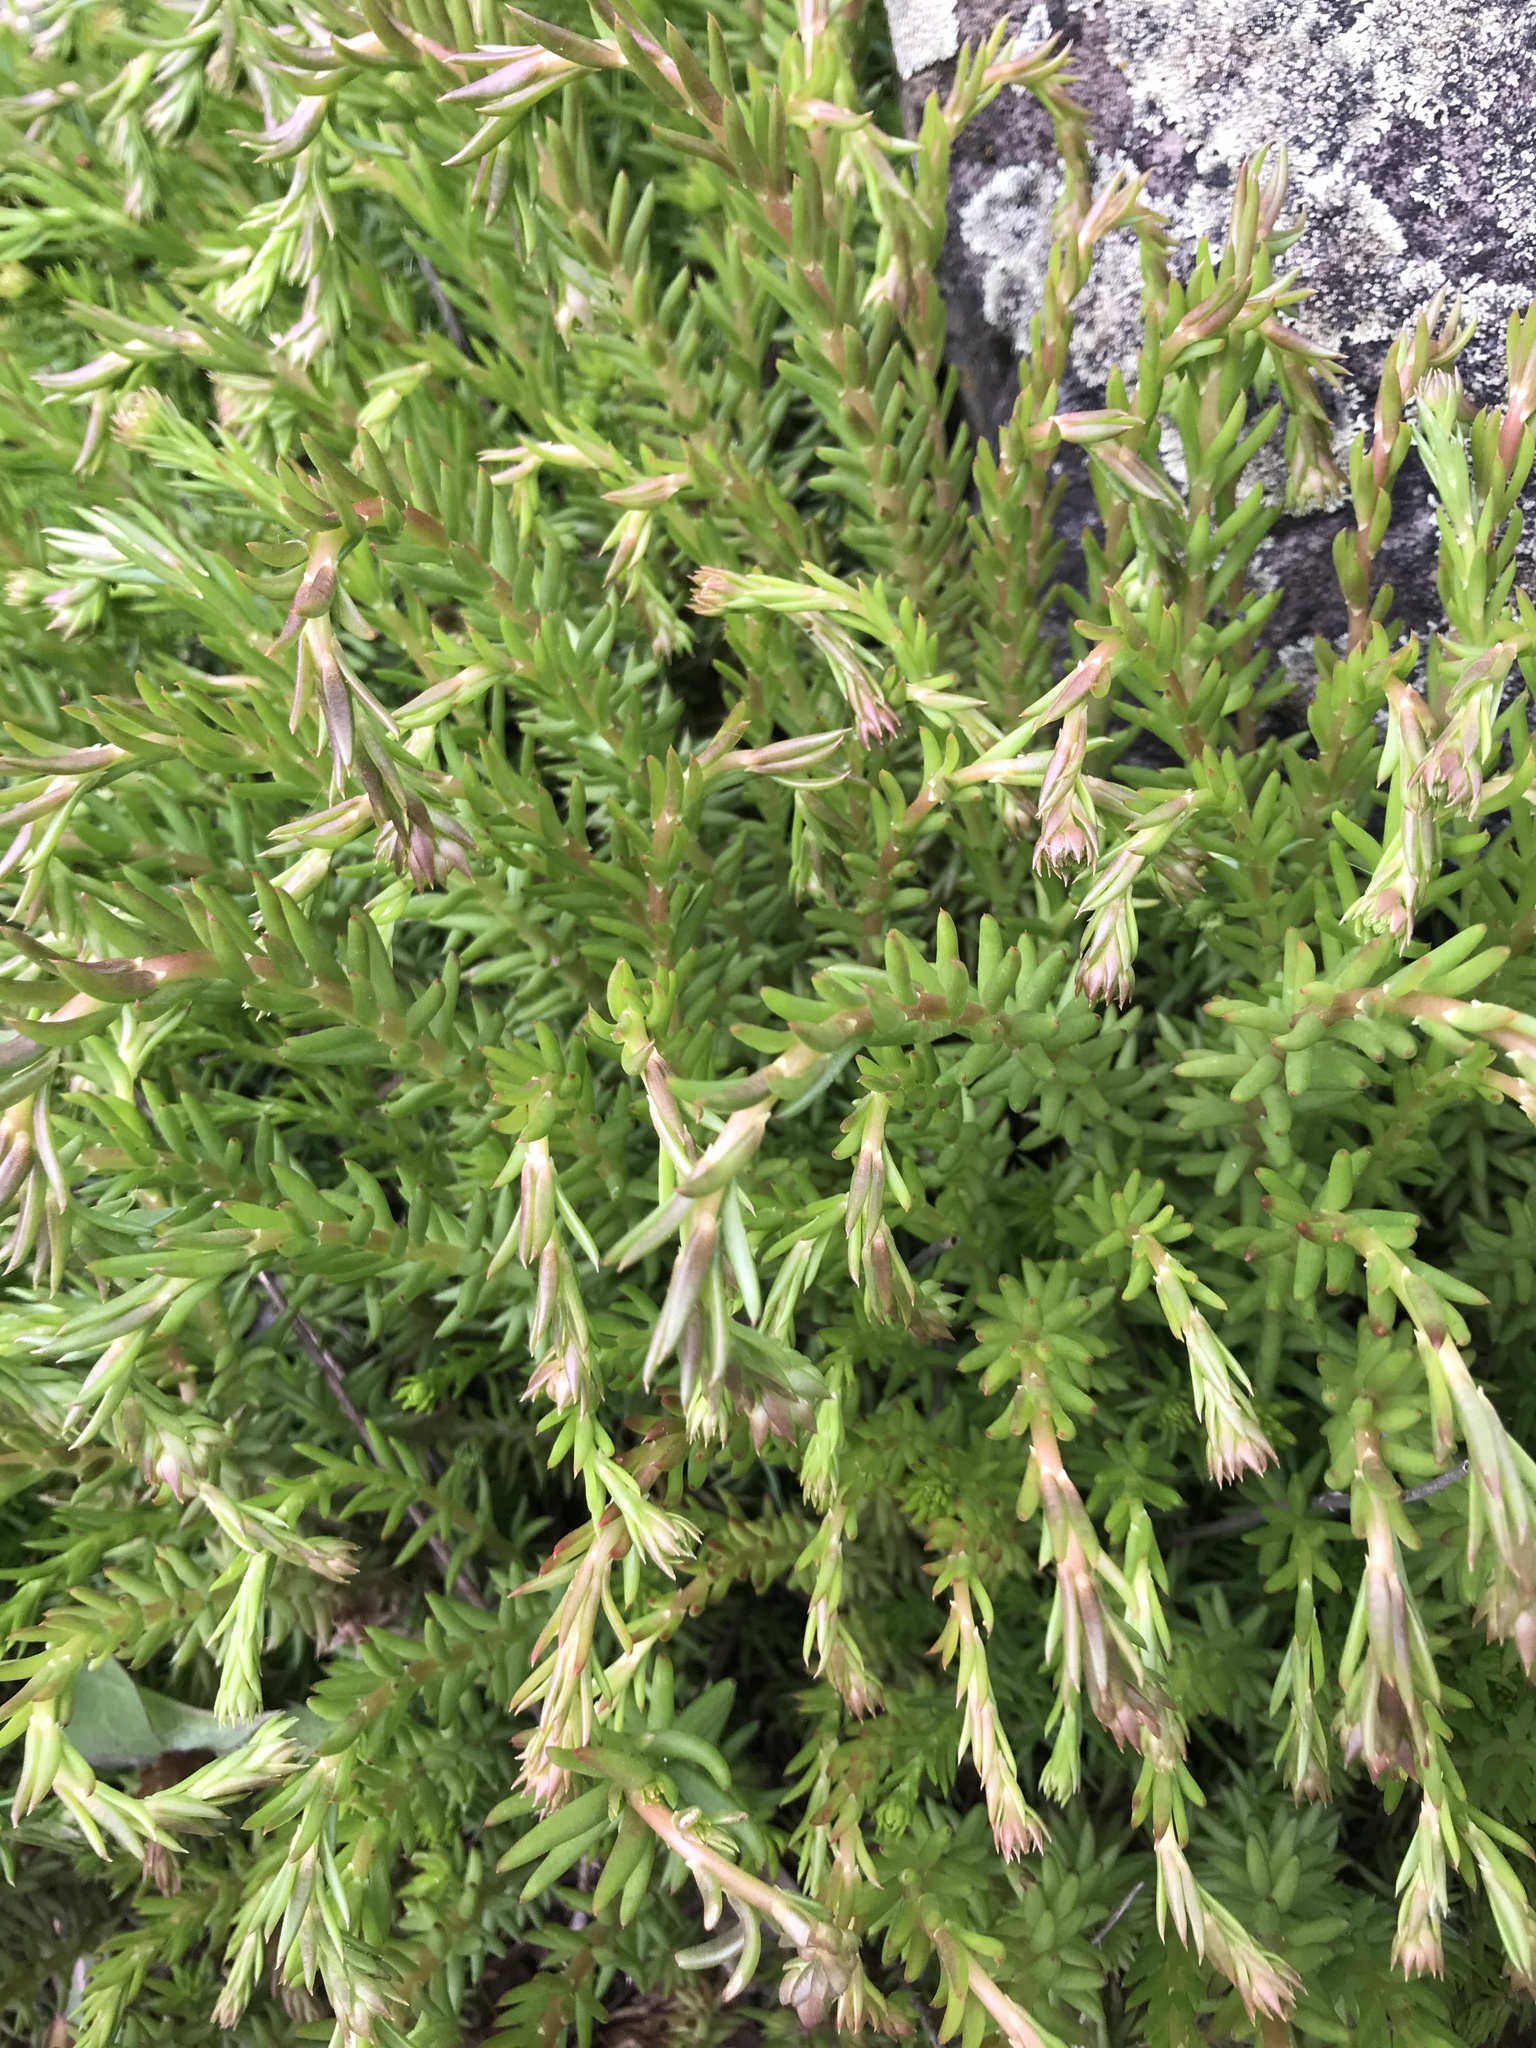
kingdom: Plantae
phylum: Tracheophyta
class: Magnoliopsida
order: Saxifragales
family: Crassulaceae
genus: Petrosedum
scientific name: Petrosedum rupestre
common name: Jenny's stonecrop
